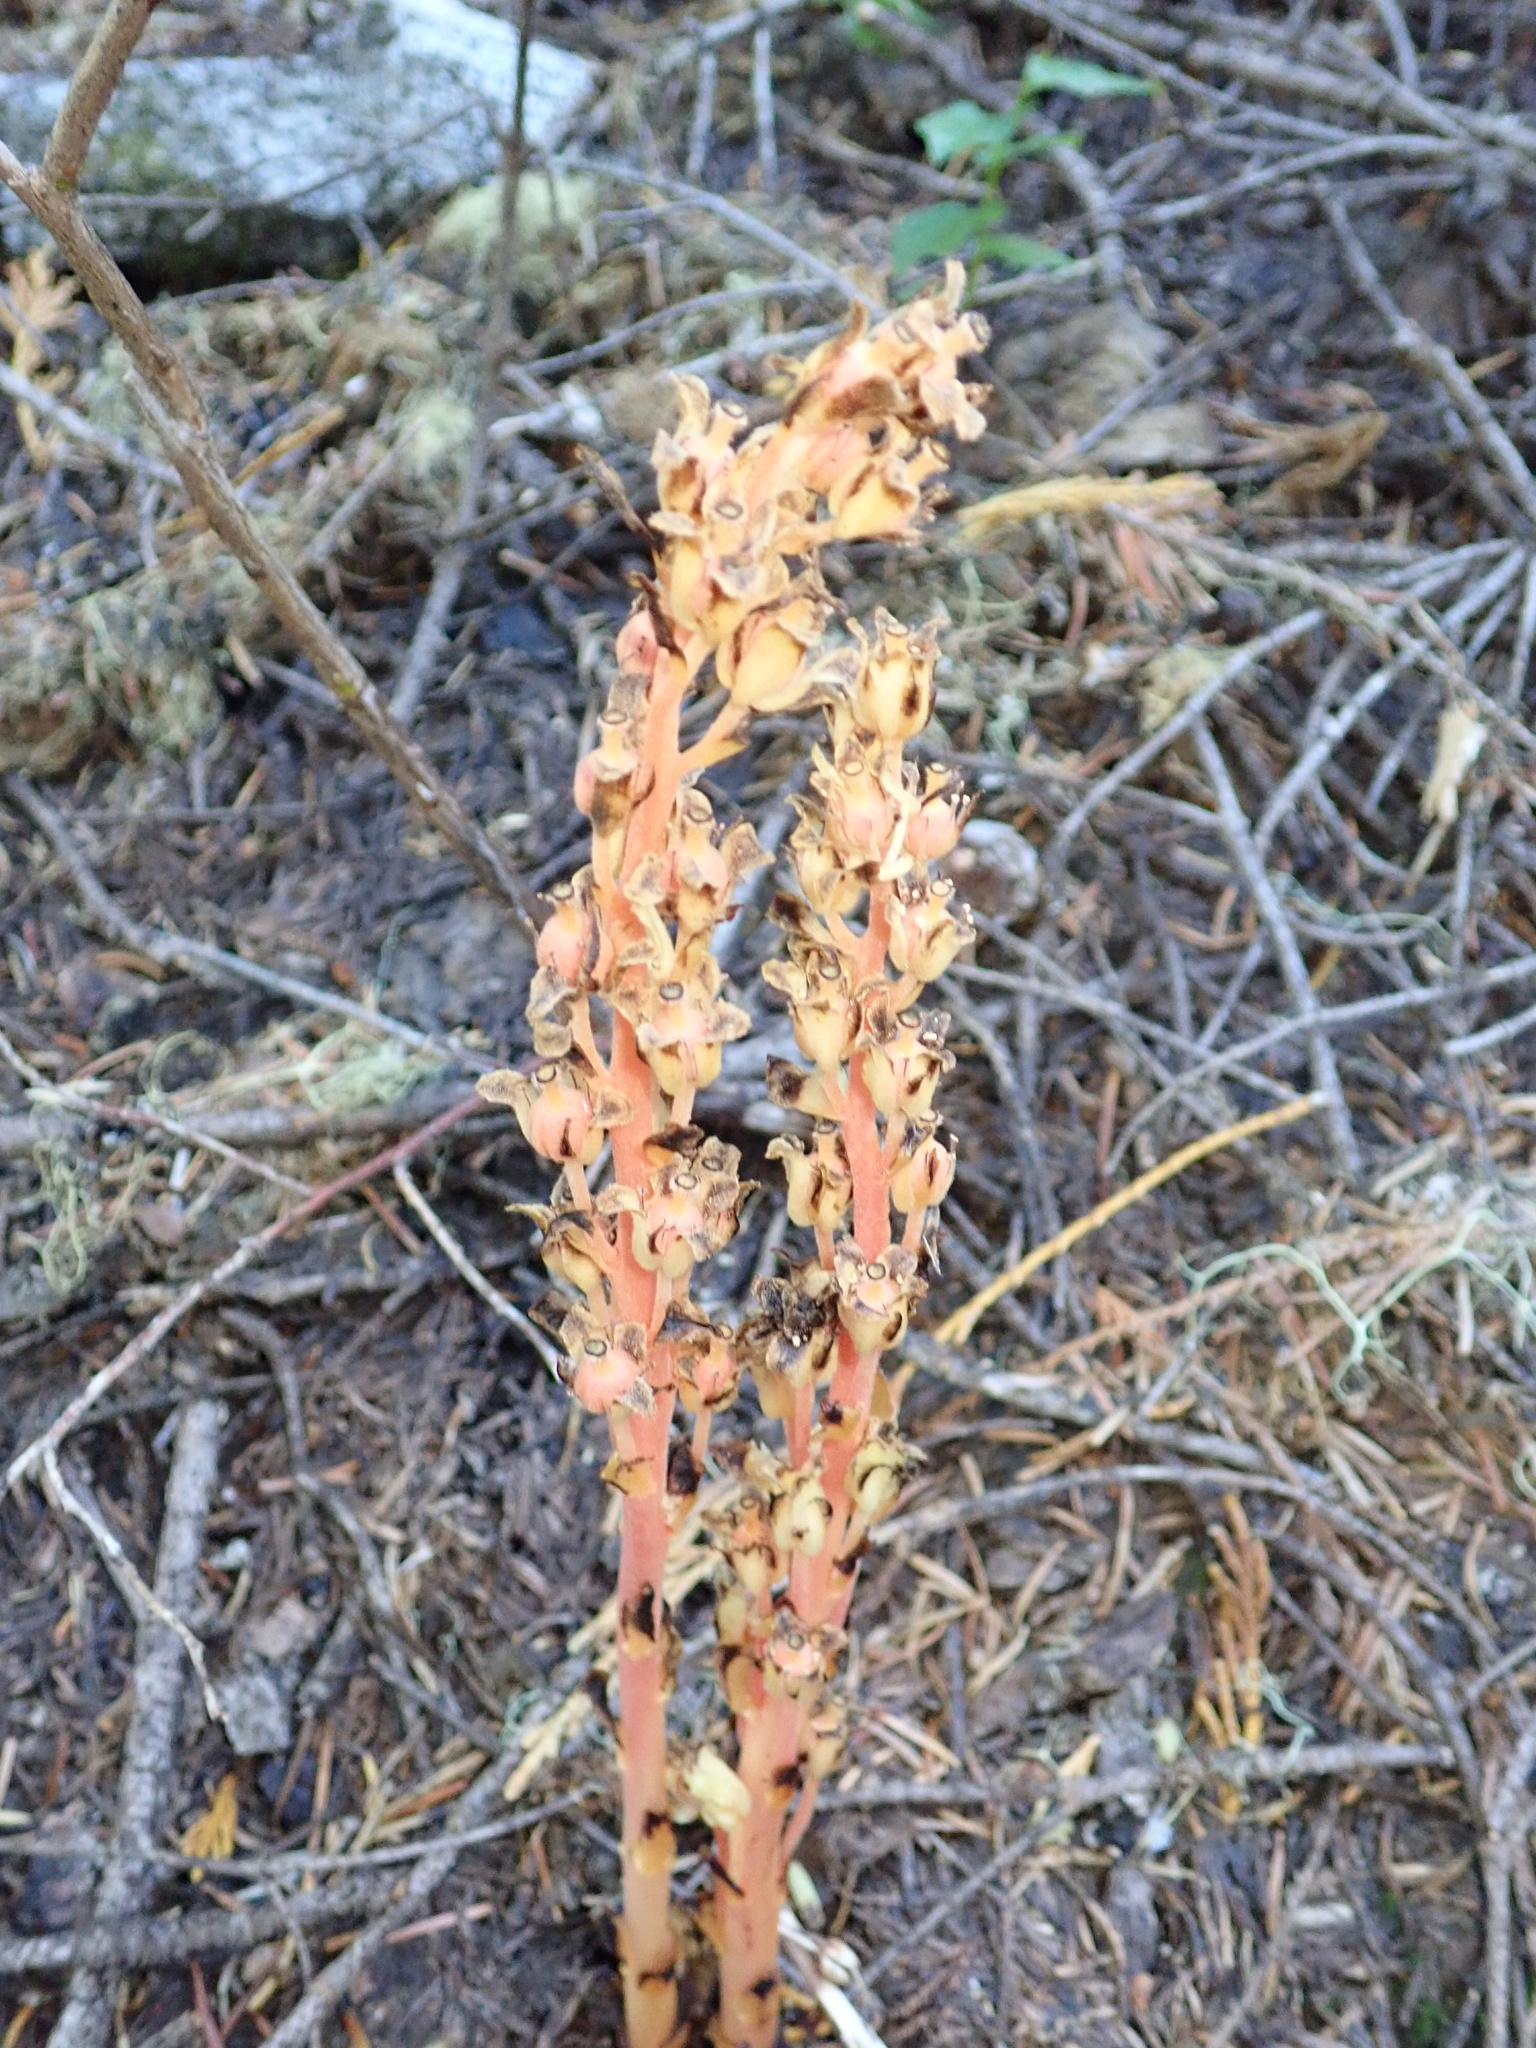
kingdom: Plantae
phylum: Tracheophyta
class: Magnoliopsida
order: Ericales
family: Ericaceae
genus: Hypopitys
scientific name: Hypopitys monotropa
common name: Yellow bird's-nest
